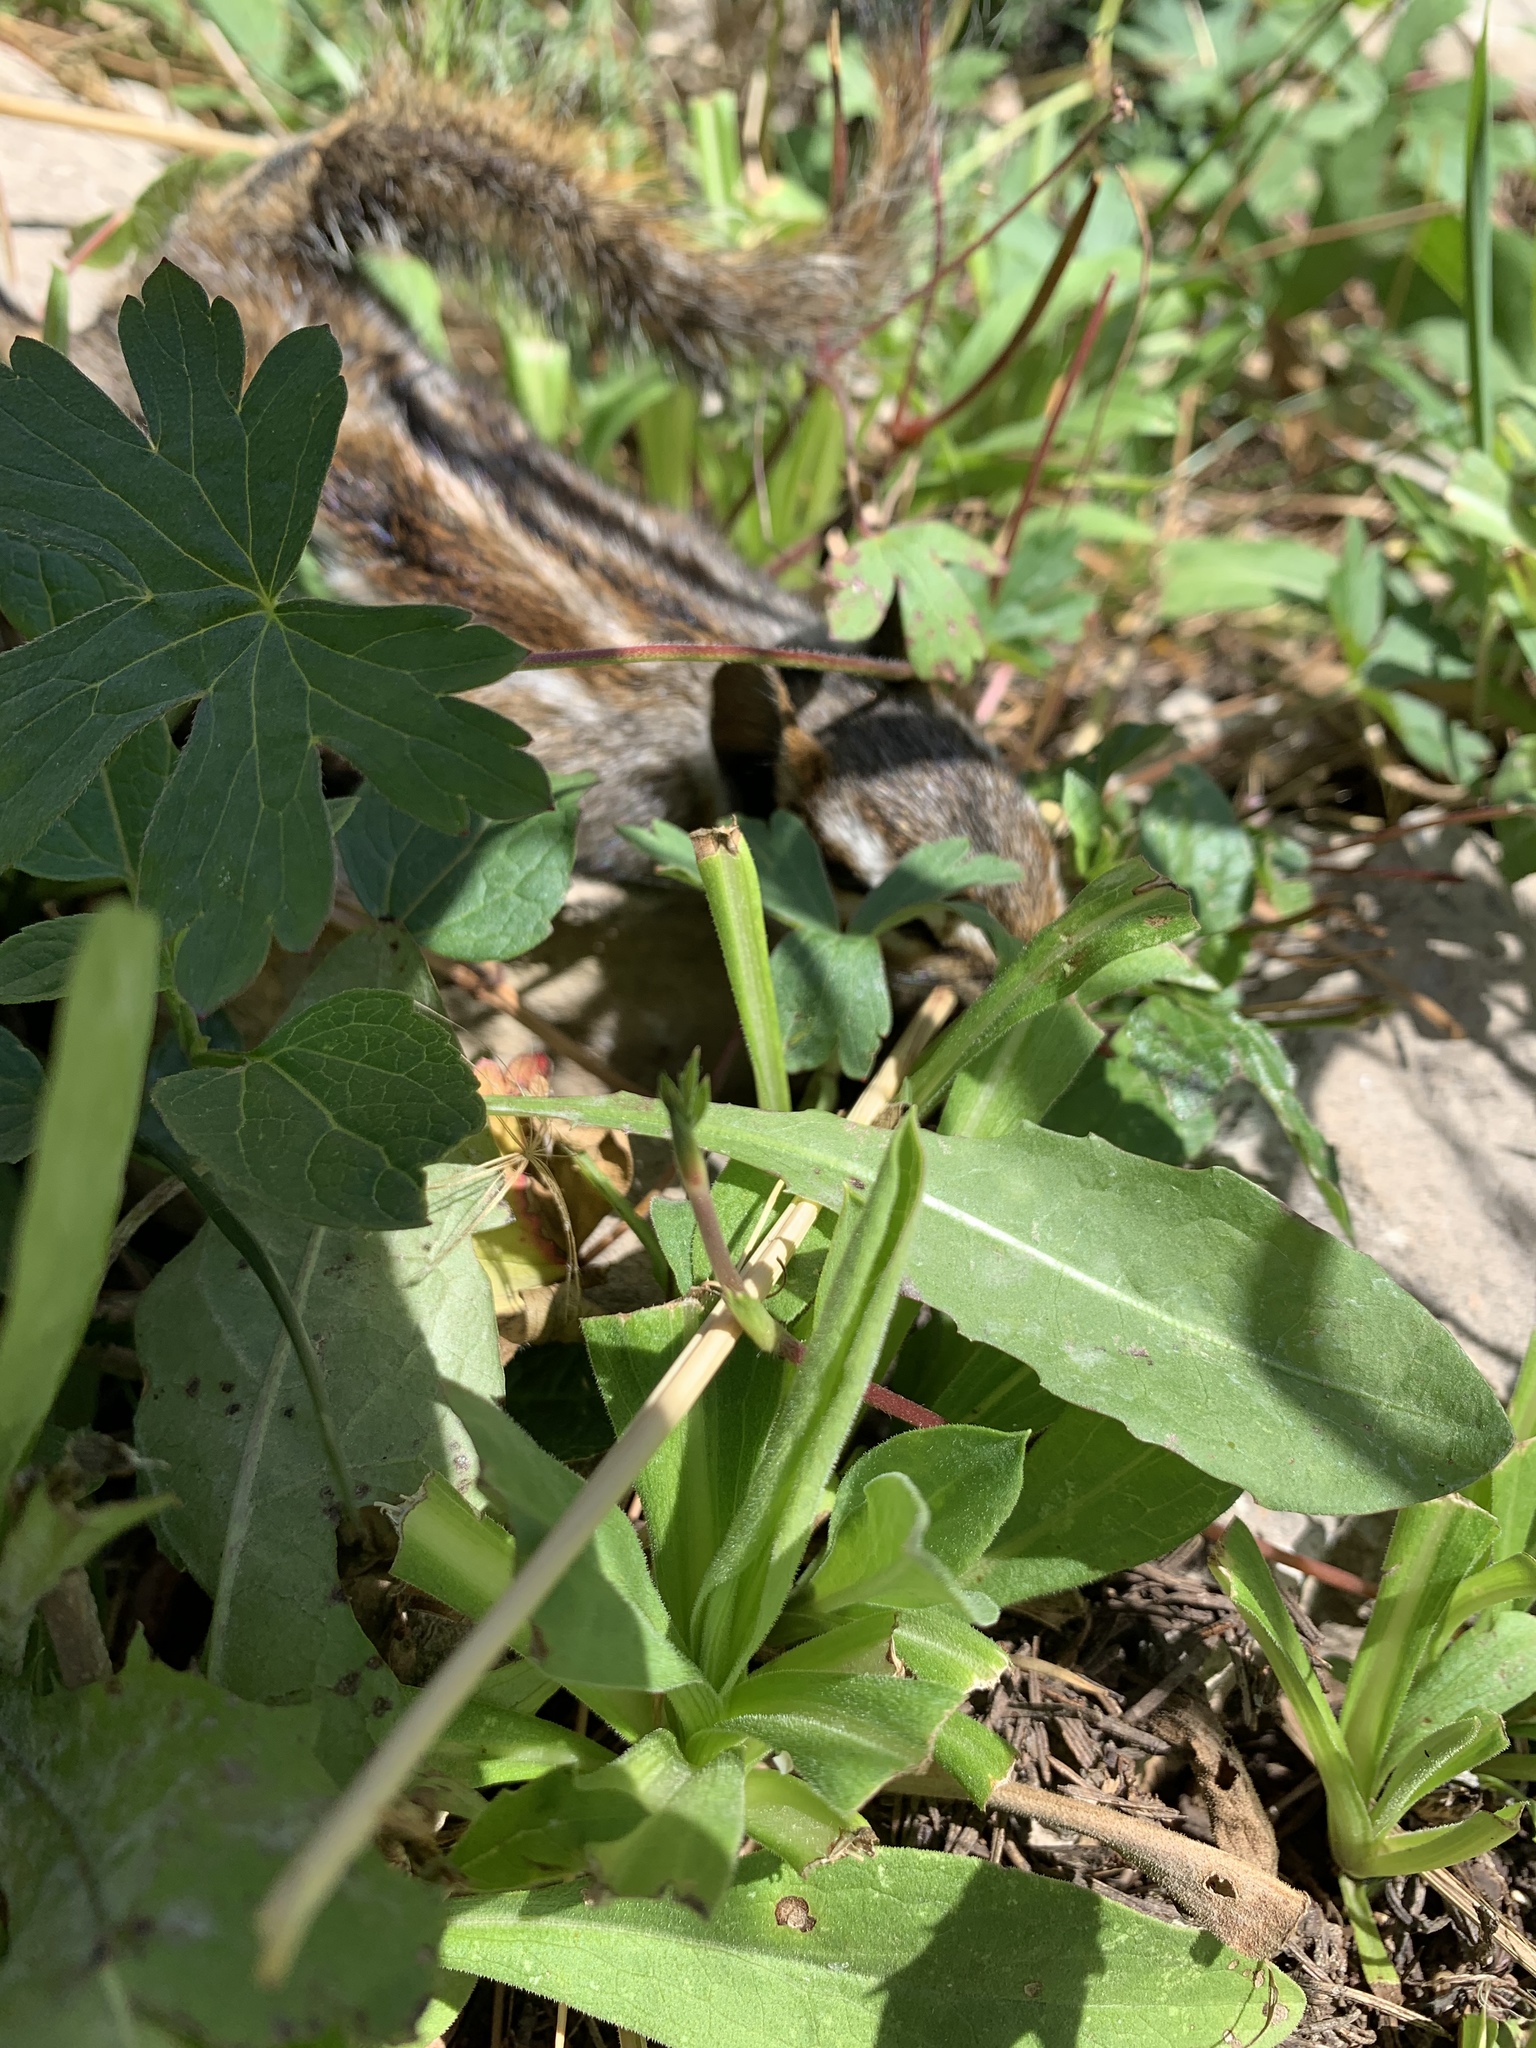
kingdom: Animalia
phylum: Chordata
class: Mammalia
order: Rodentia
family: Sciuridae
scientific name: Sciuridae
